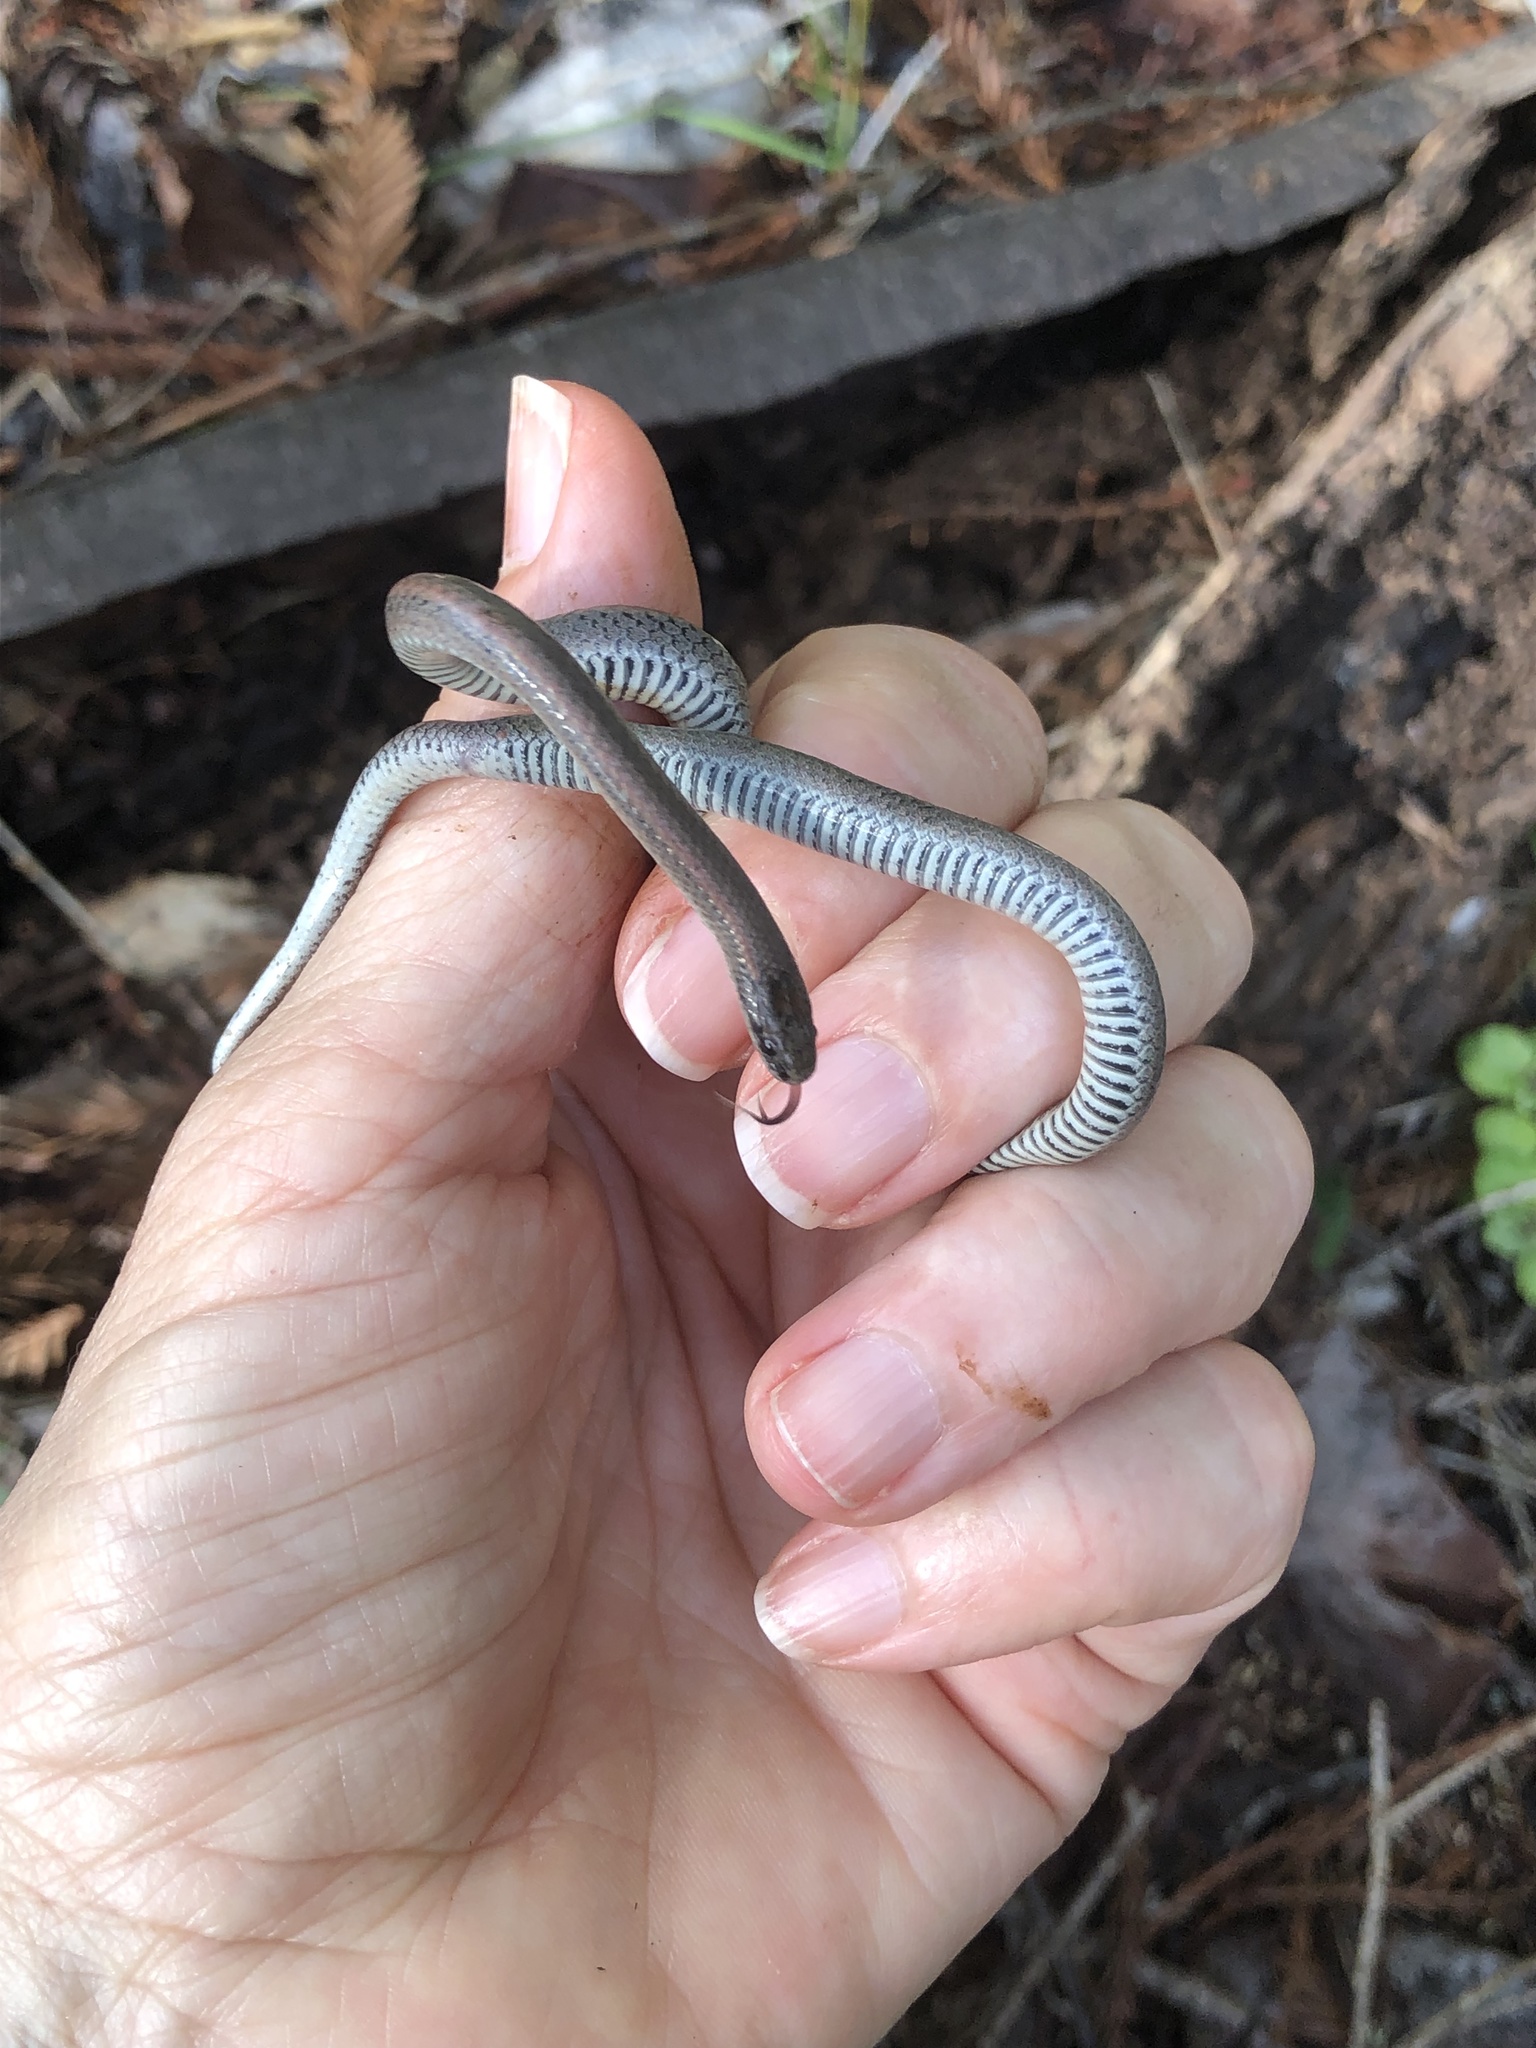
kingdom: Animalia
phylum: Chordata
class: Squamata
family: Colubridae
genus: Contia
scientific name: Contia tenuis
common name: Sharptail snake
